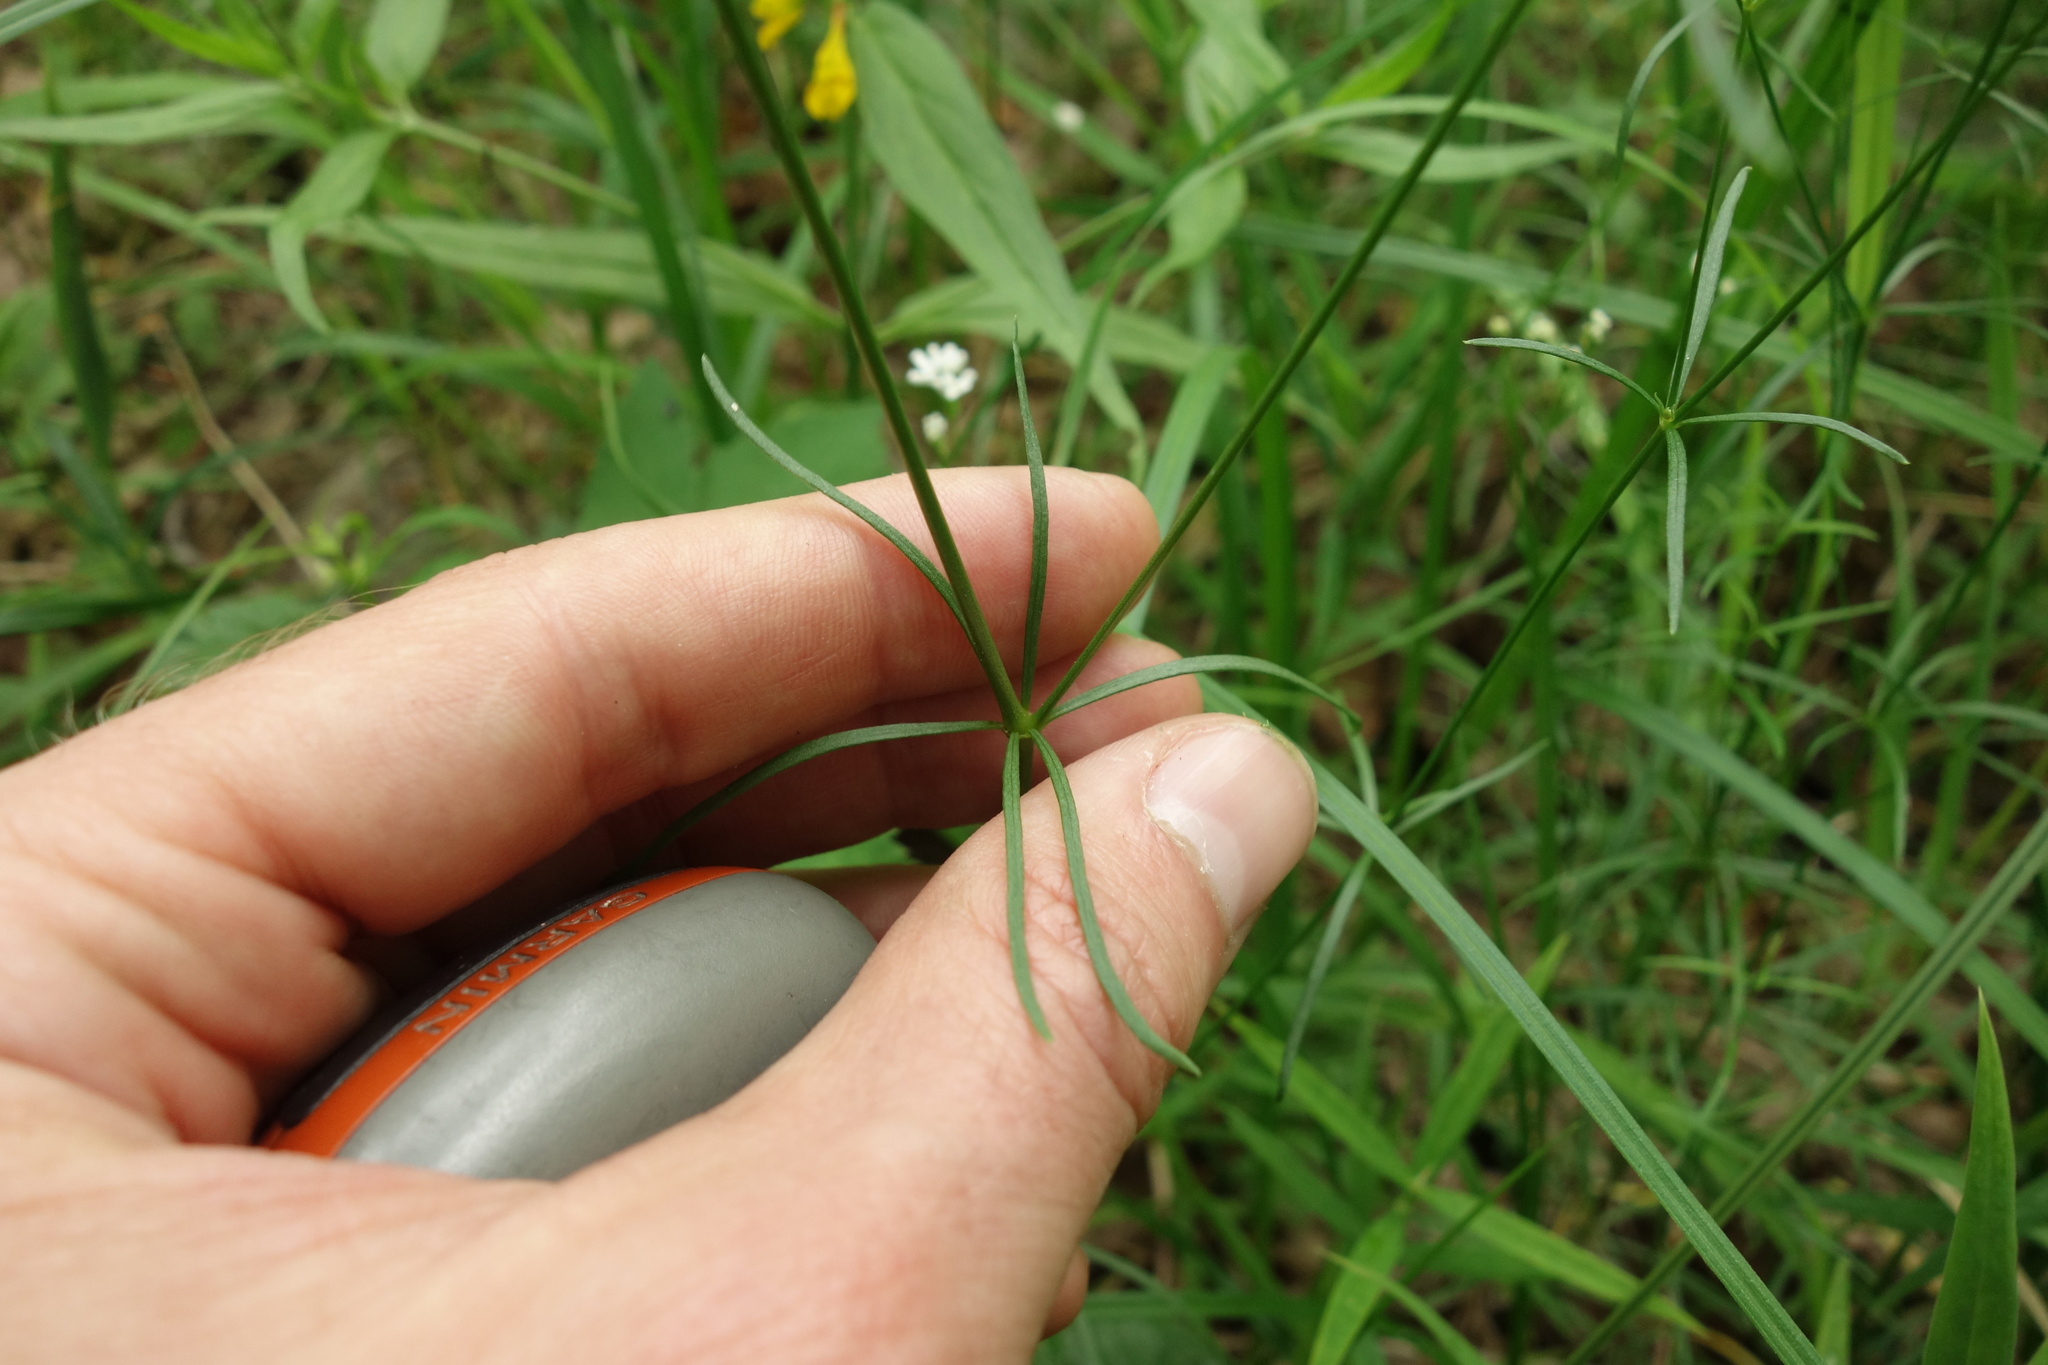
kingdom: Plantae
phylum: Tracheophyta
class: Magnoliopsida
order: Gentianales
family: Rubiaceae
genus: Asperula
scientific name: Asperula tinctoria
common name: Dyer's woodruff
